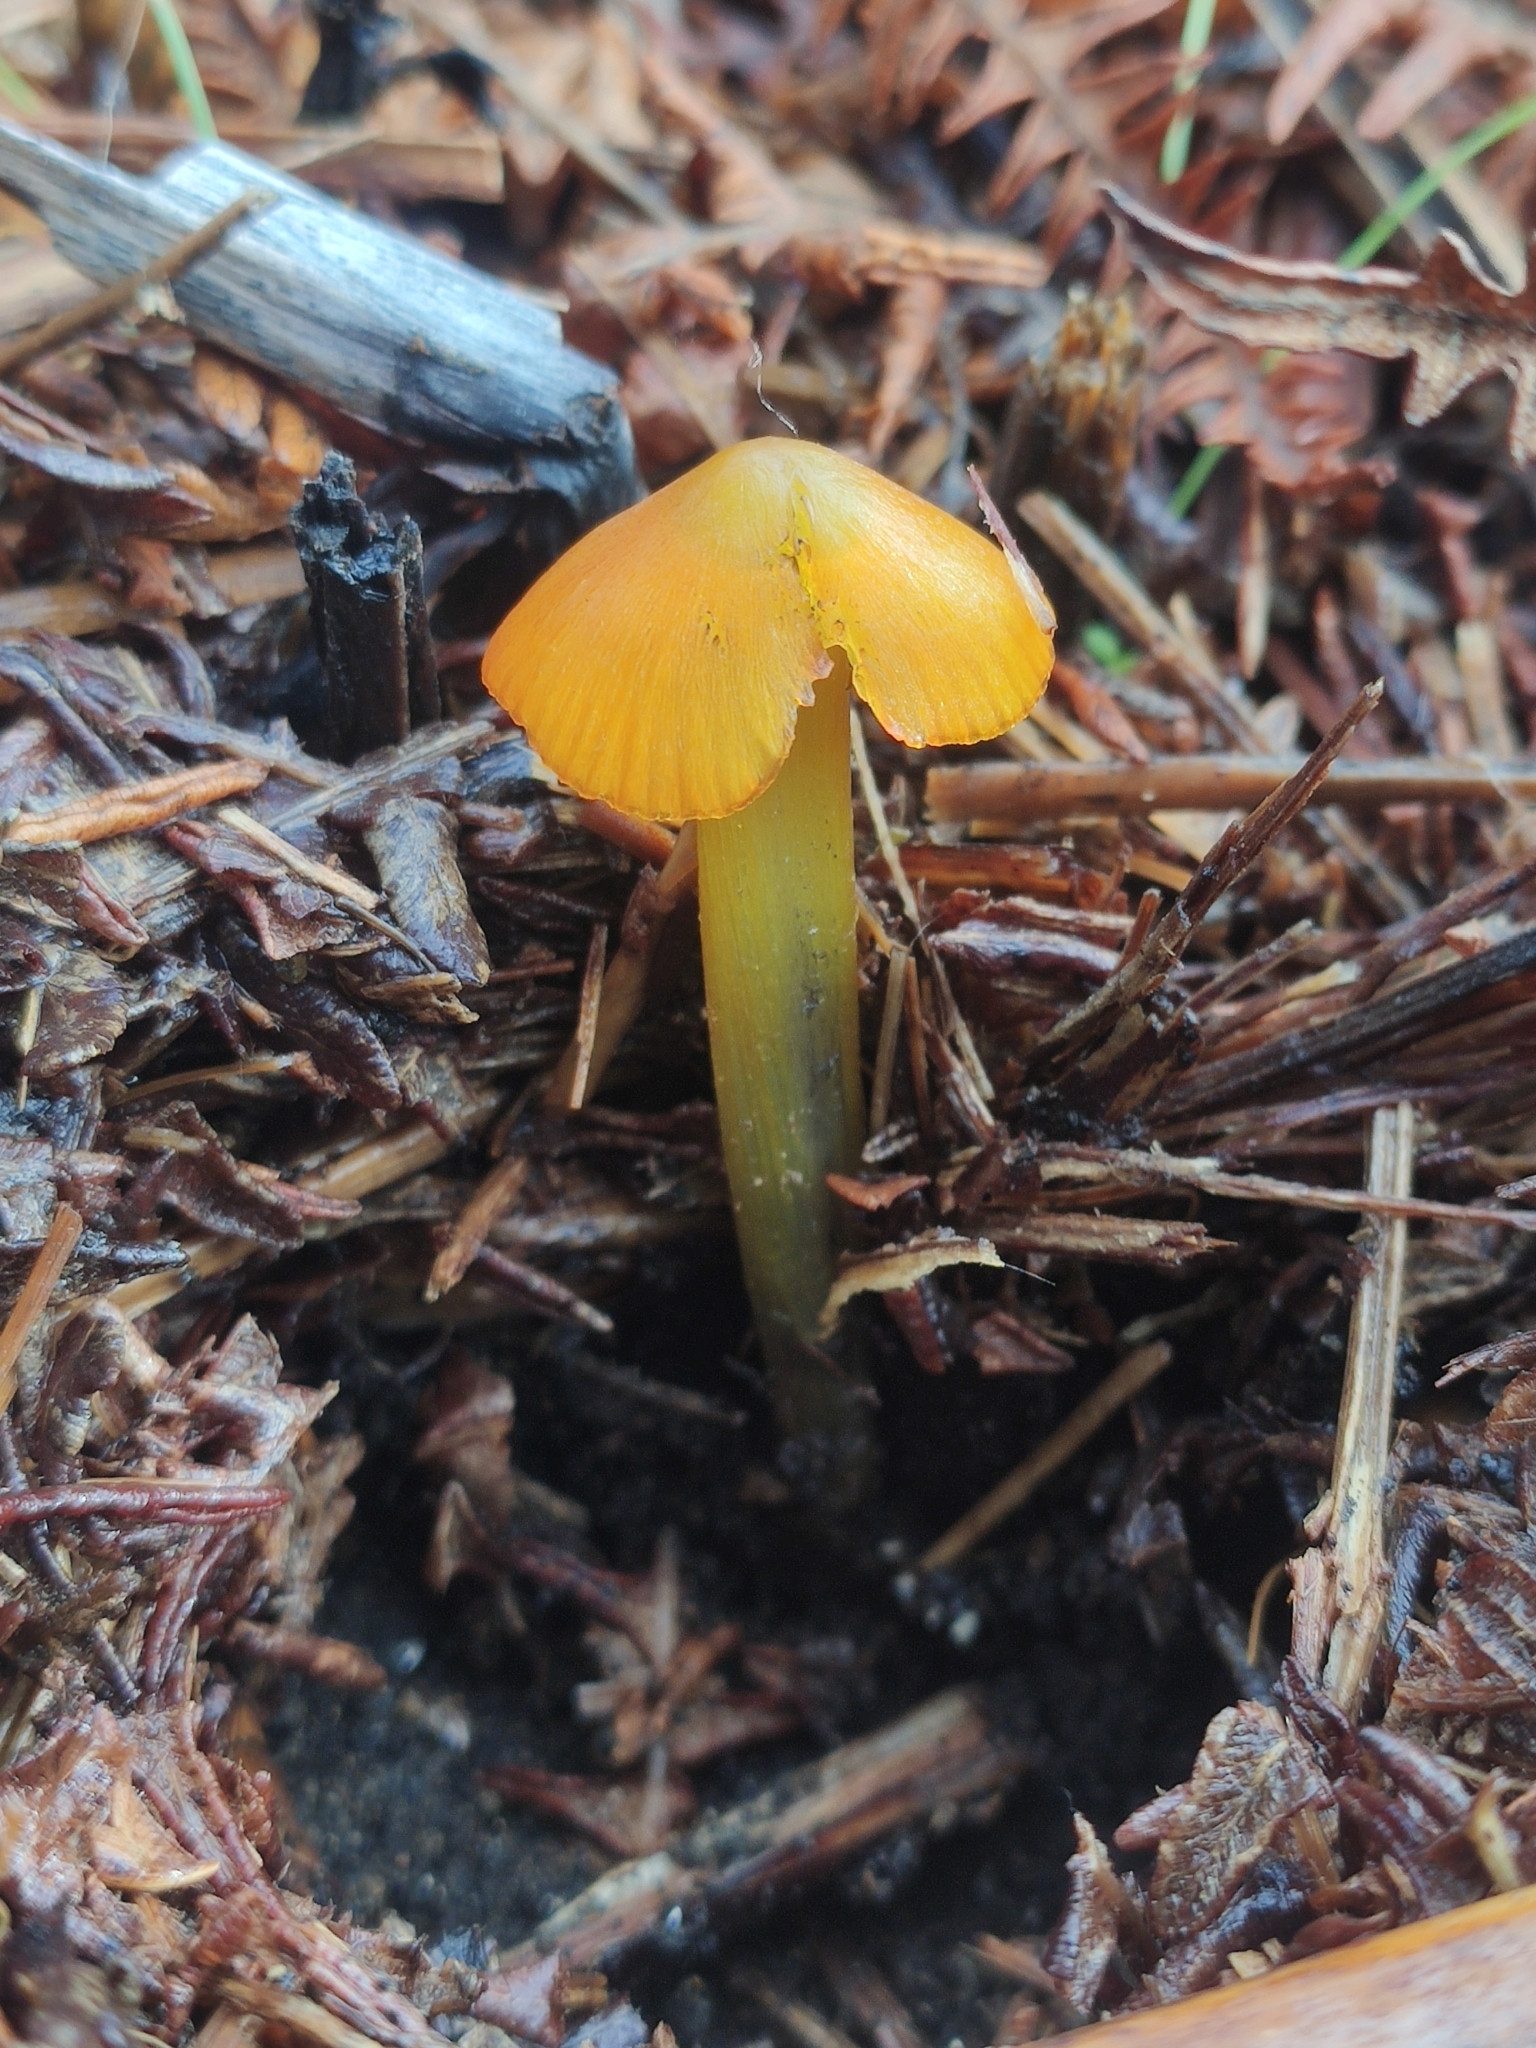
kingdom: Fungi
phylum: Basidiomycota
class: Agaricomycetes
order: Agaricales
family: Hygrophoraceae
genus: Hygrocybe
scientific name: Hygrocybe conica
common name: Blackening wax-cap
